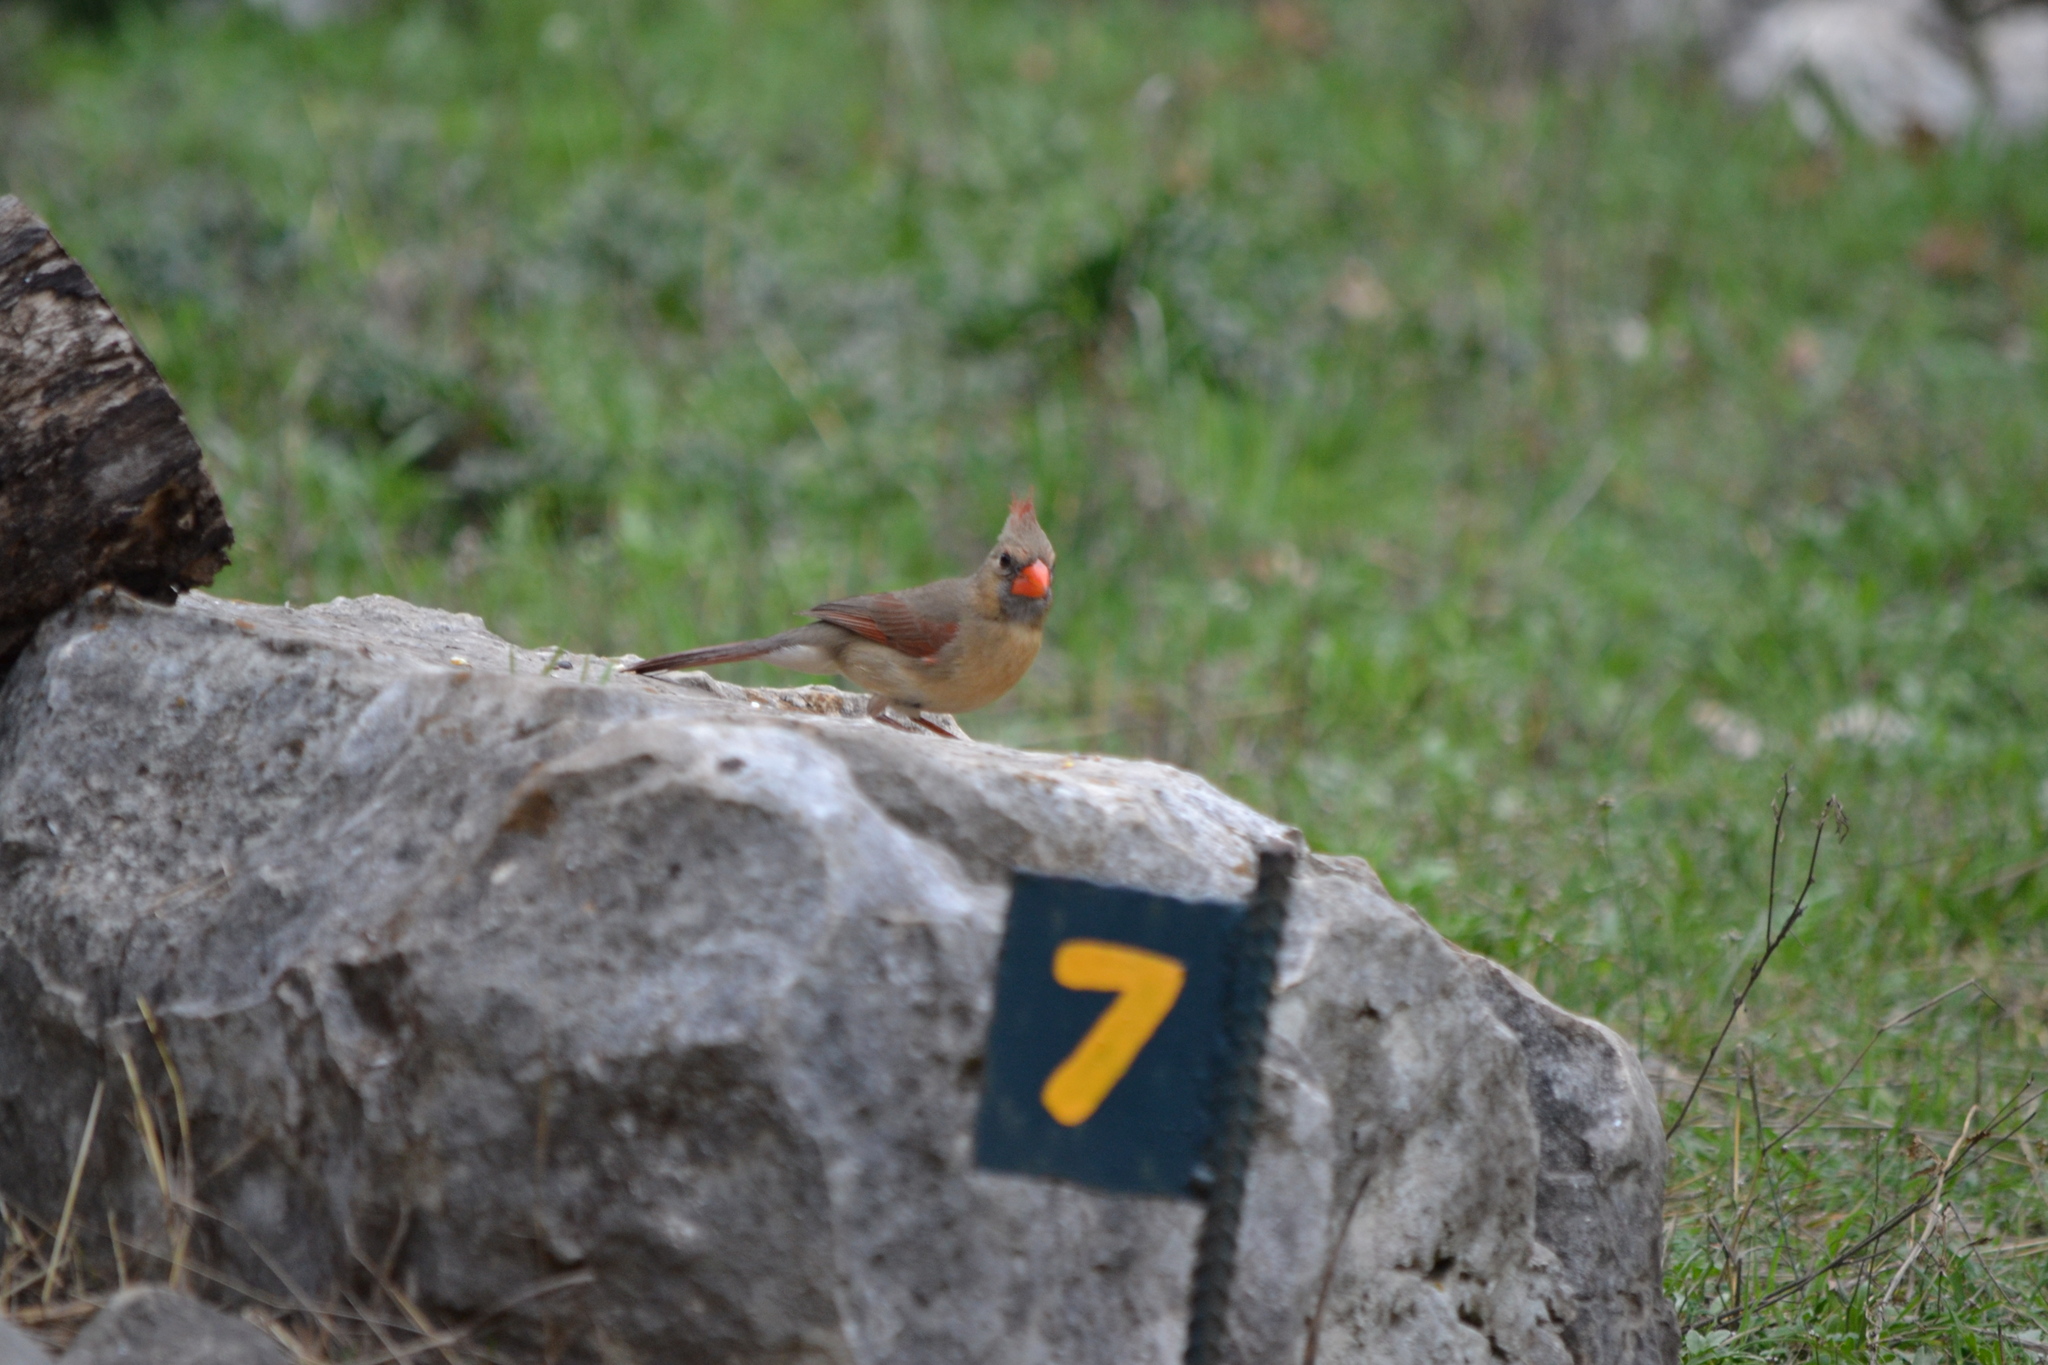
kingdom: Animalia
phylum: Chordata
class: Aves
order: Passeriformes
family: Cardinalidae
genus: Cardinalis
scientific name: Cardinalis cardinalis
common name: Northern cardinal
